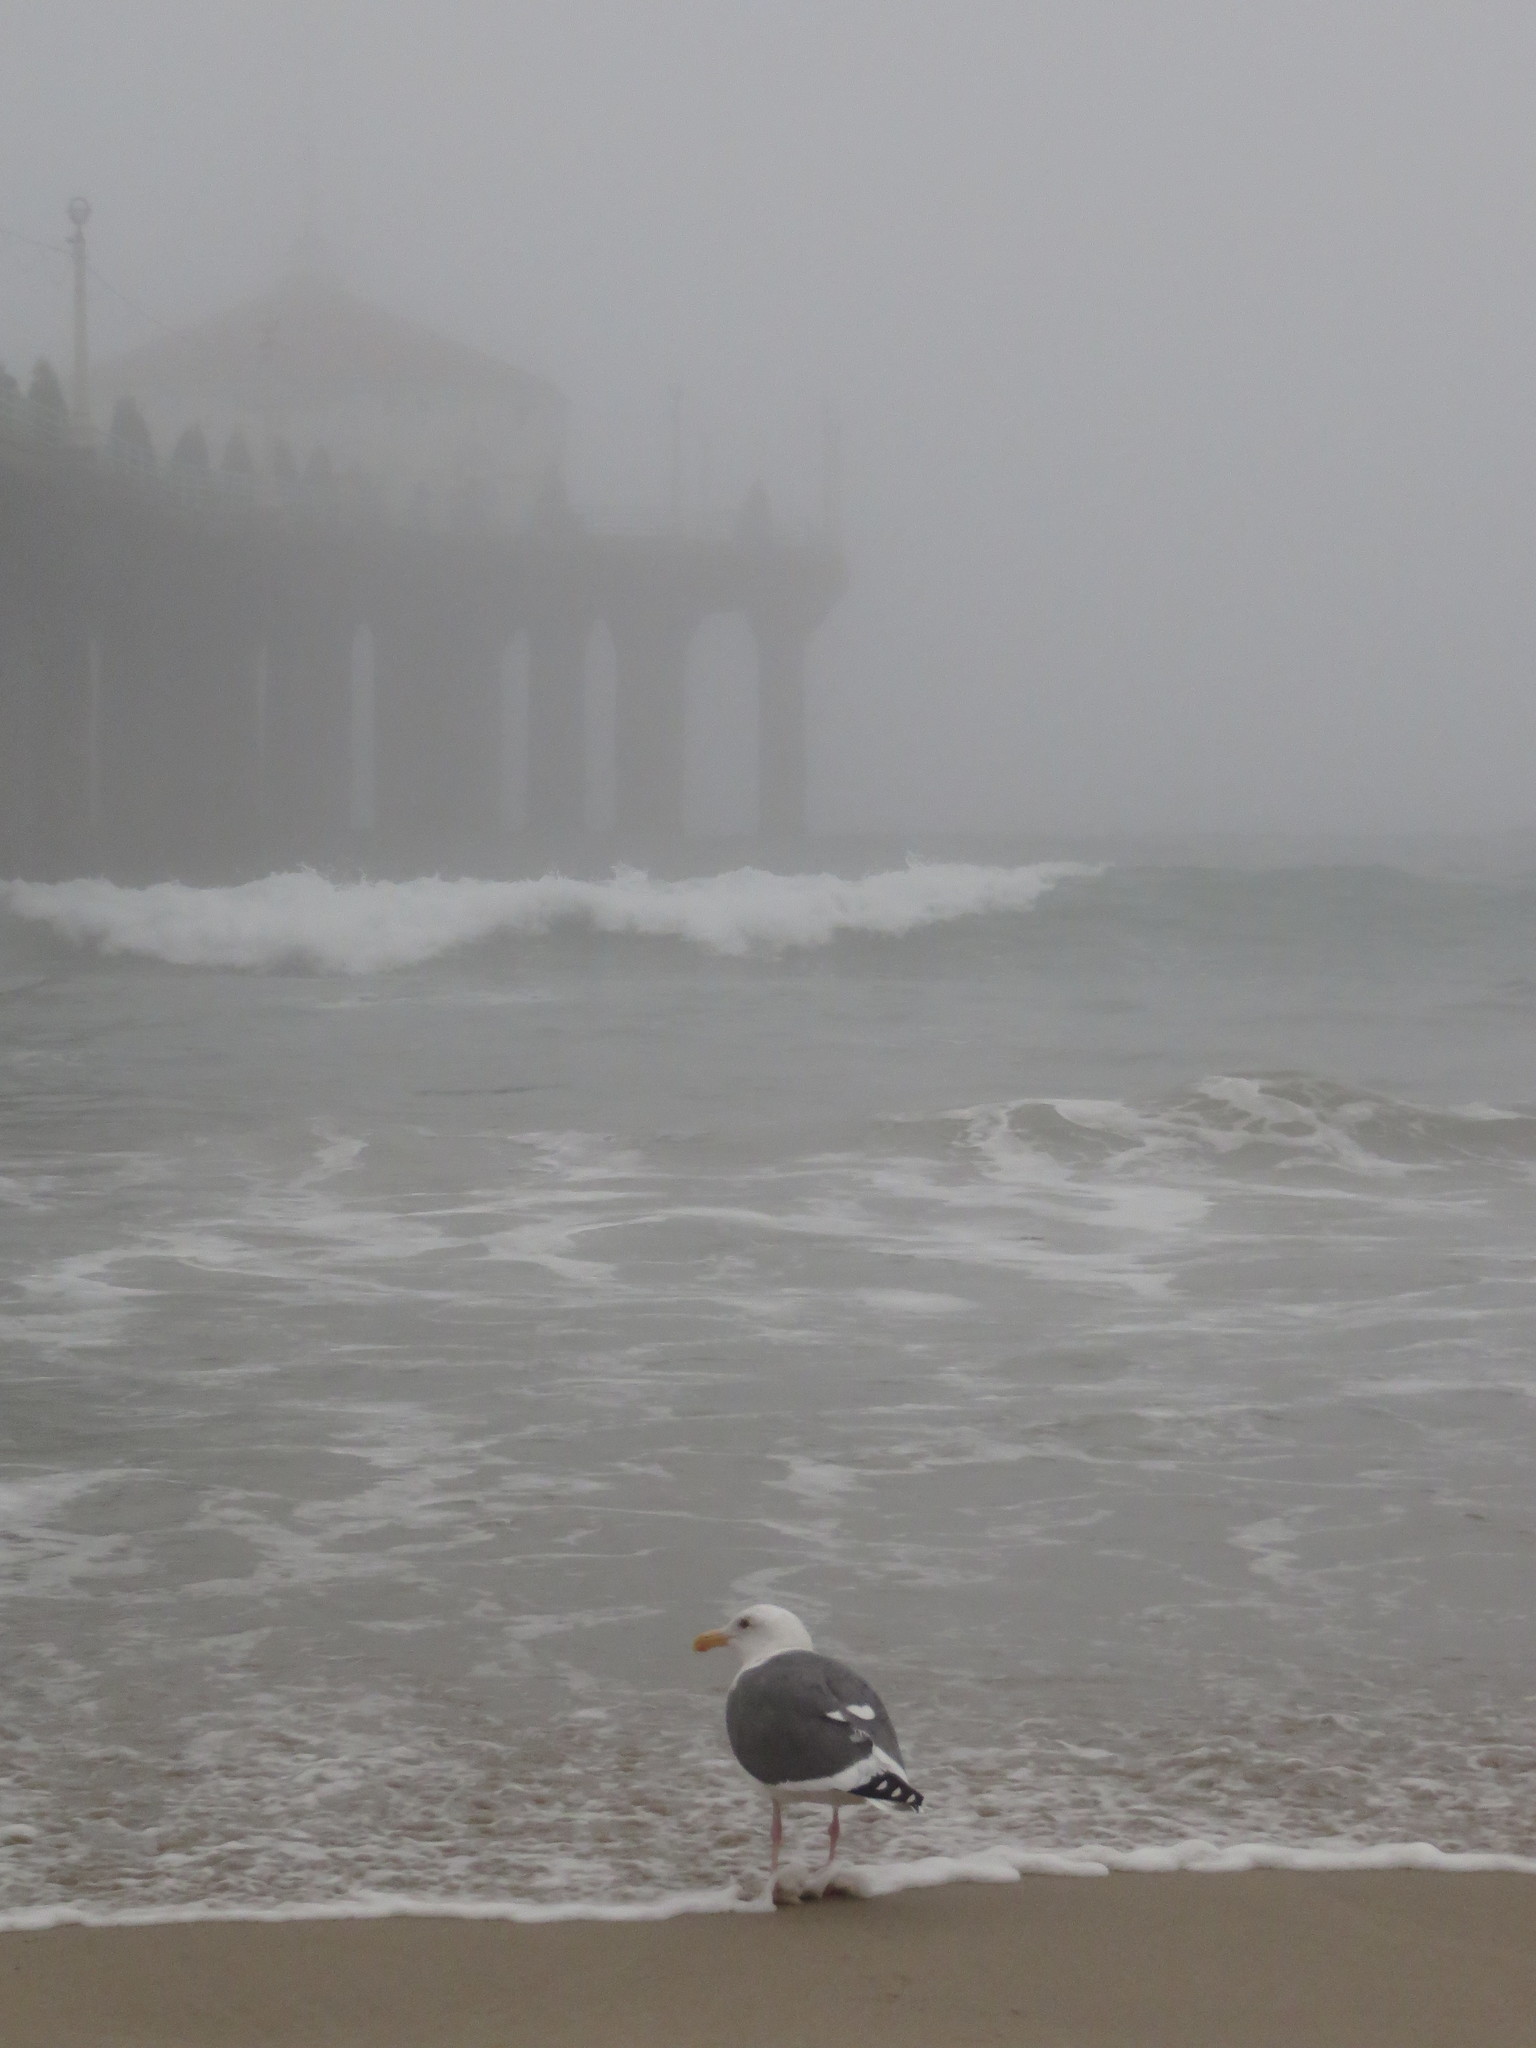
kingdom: Animalia
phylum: Chordata
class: Aves
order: Charadriiformes
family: Laridae
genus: Larus
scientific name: Larus occidentalis
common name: Western gull
